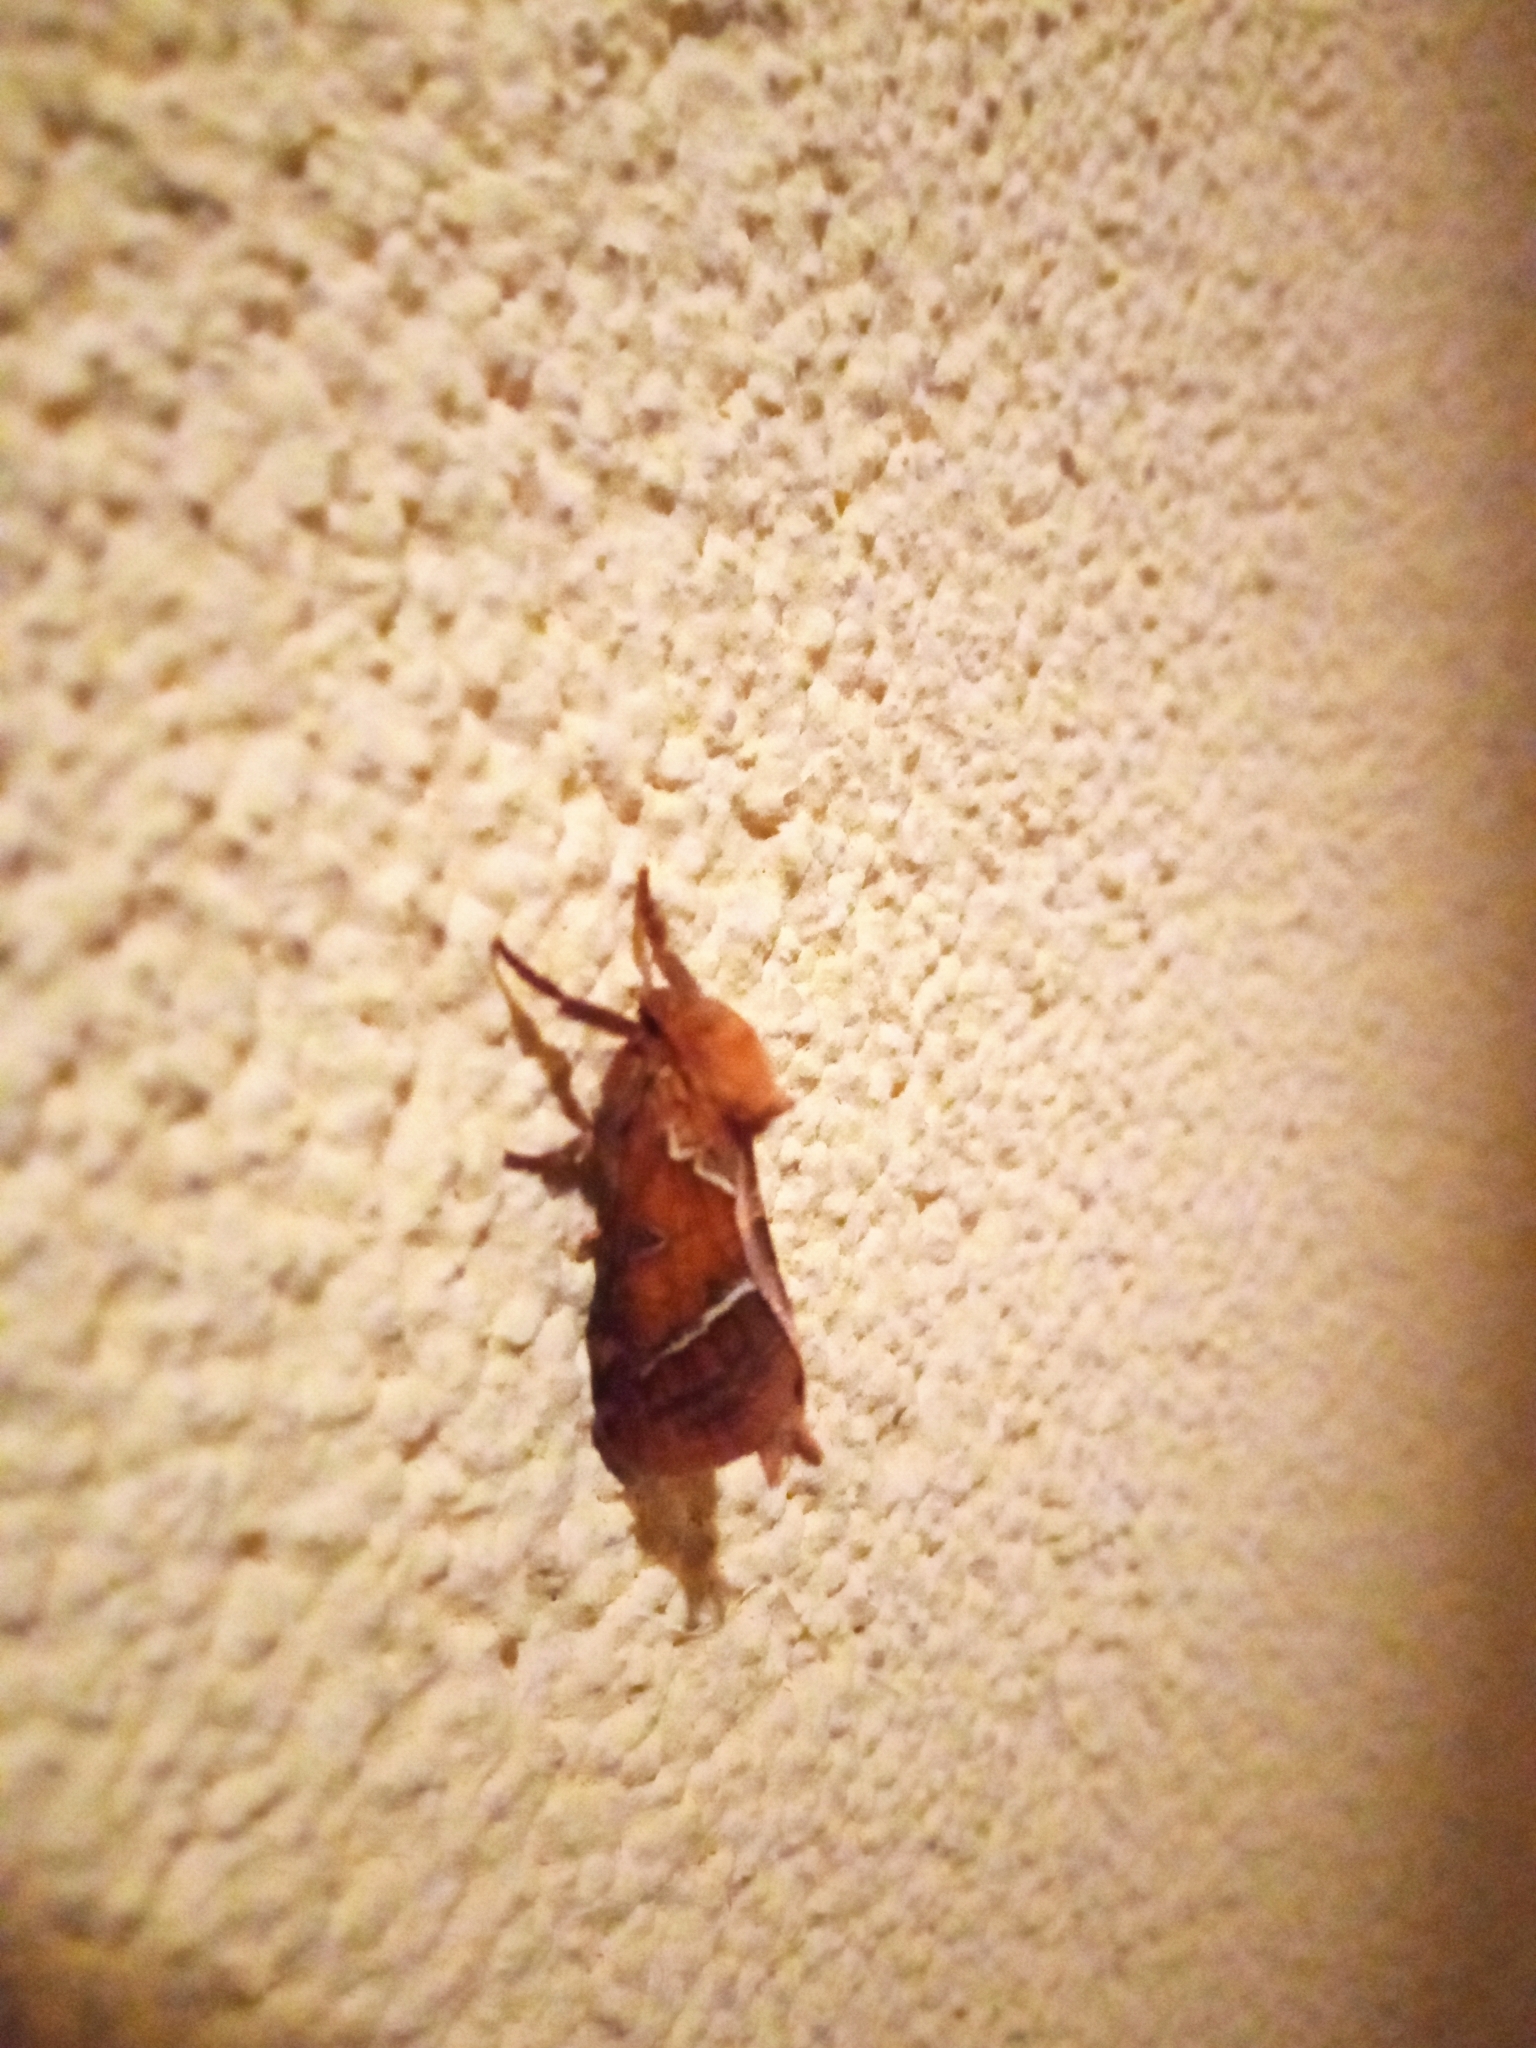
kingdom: Animalia
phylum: Arthropoda
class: Insecta
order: Lepidoptera
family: Hepialidae
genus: Triodia
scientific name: Triodia sylvina
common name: Orange swift
